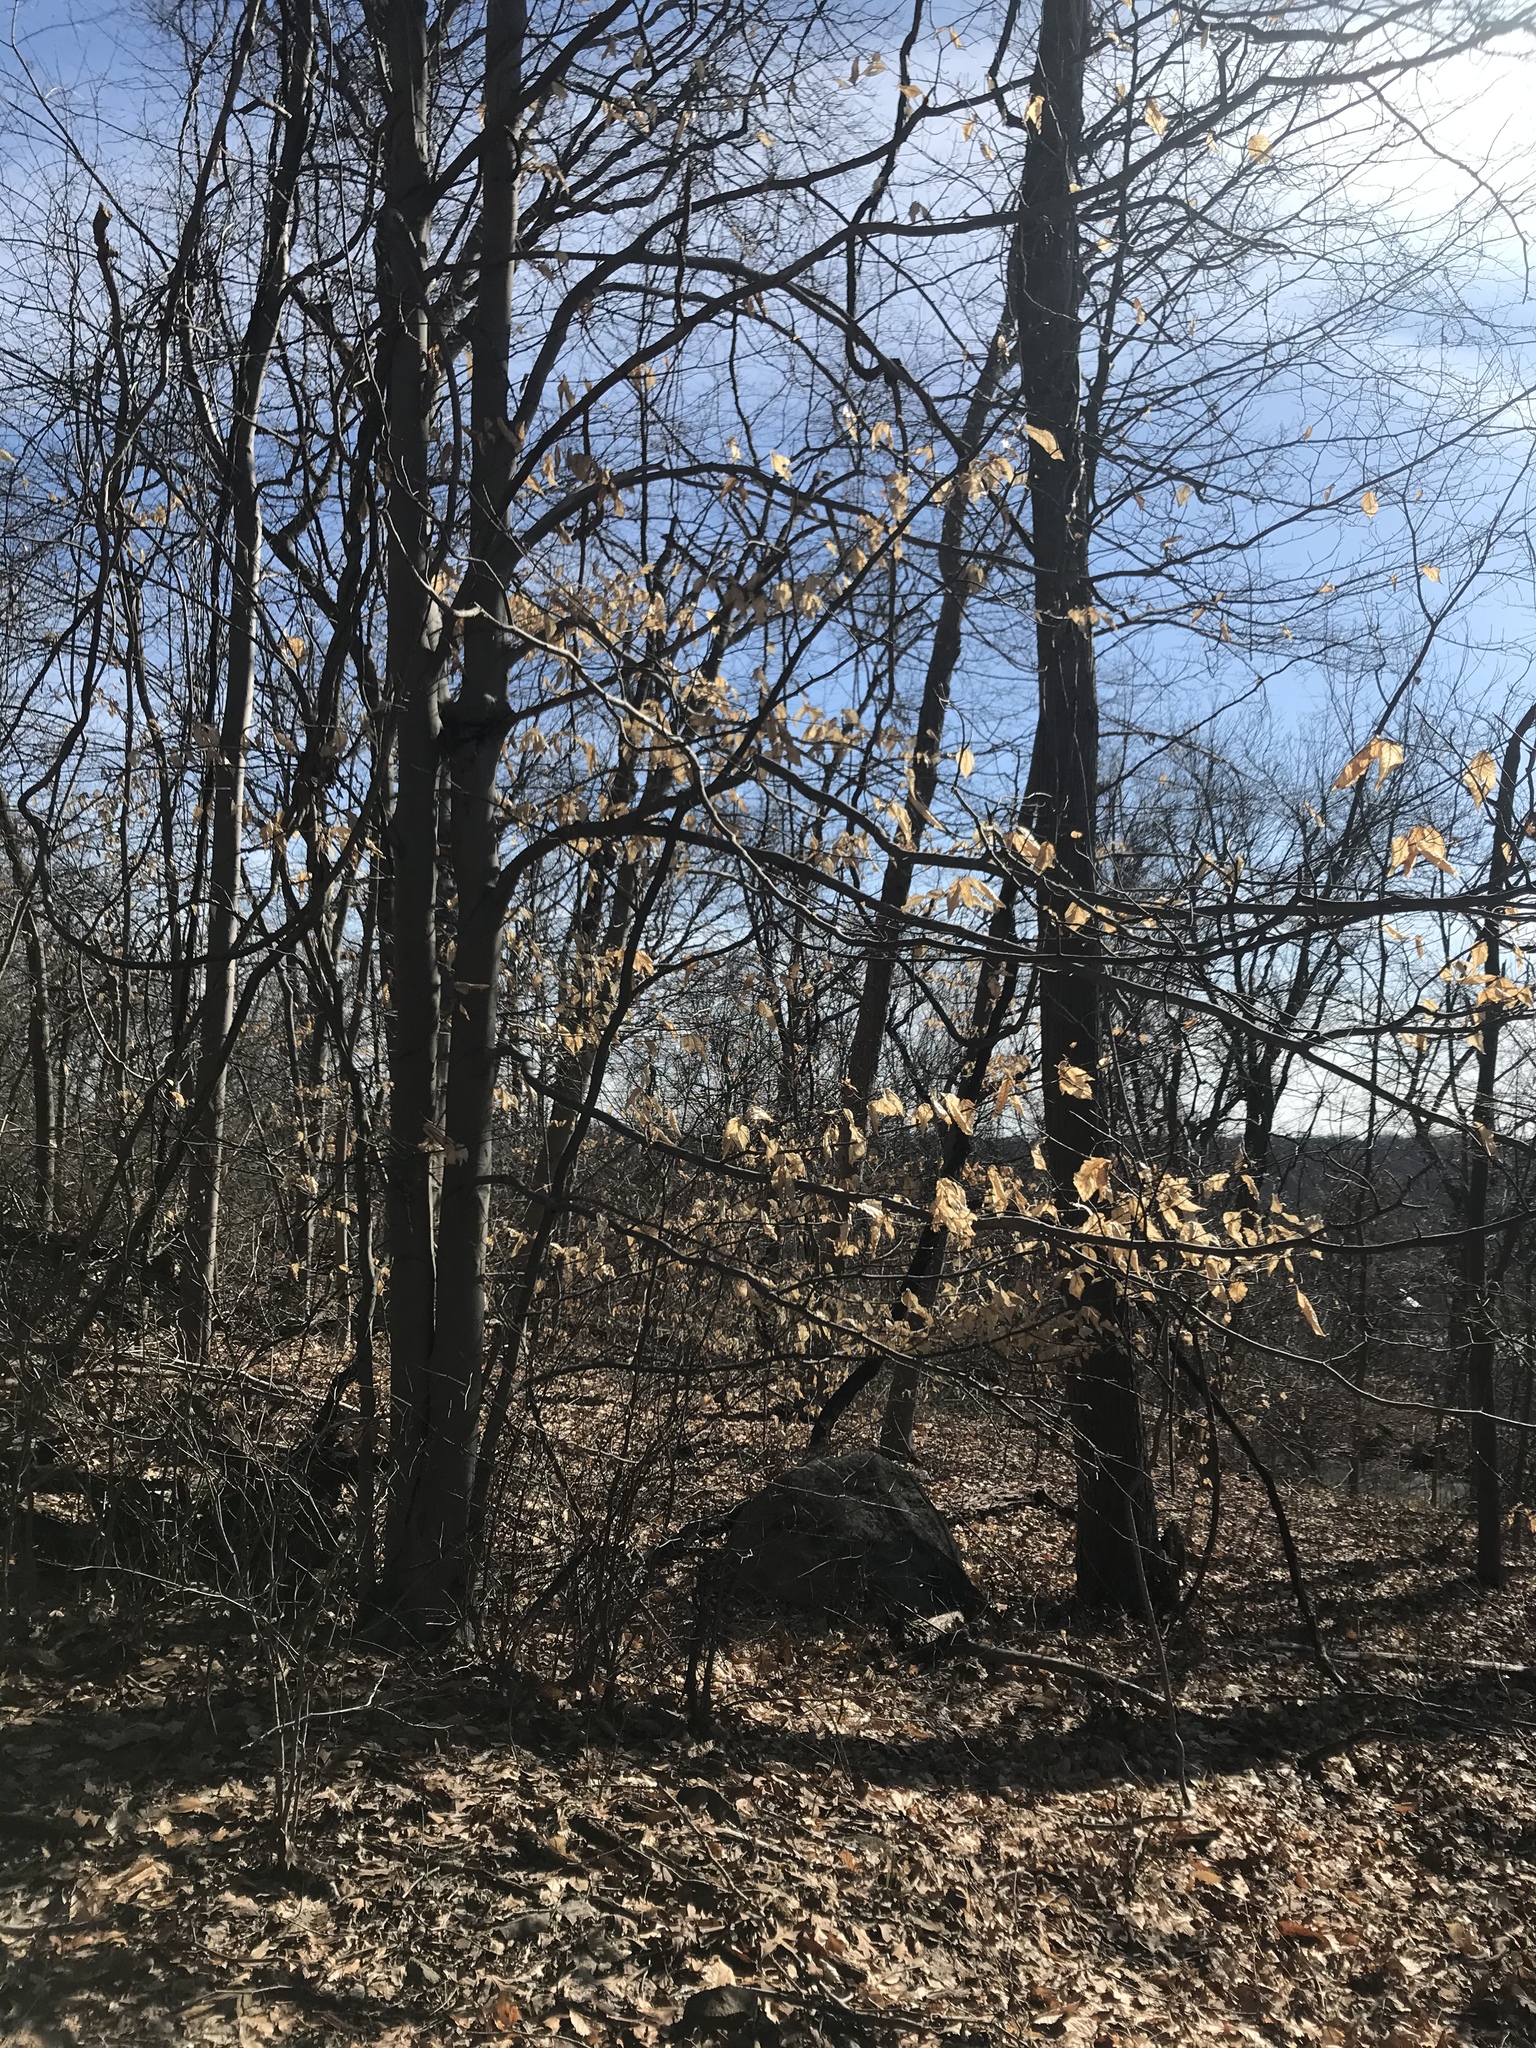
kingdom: Plantae
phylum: Tracheophyta
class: Magnoliopsida
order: Fagales
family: Fagaceae
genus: Fagus
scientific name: Fagus grandifolia
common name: American beech
